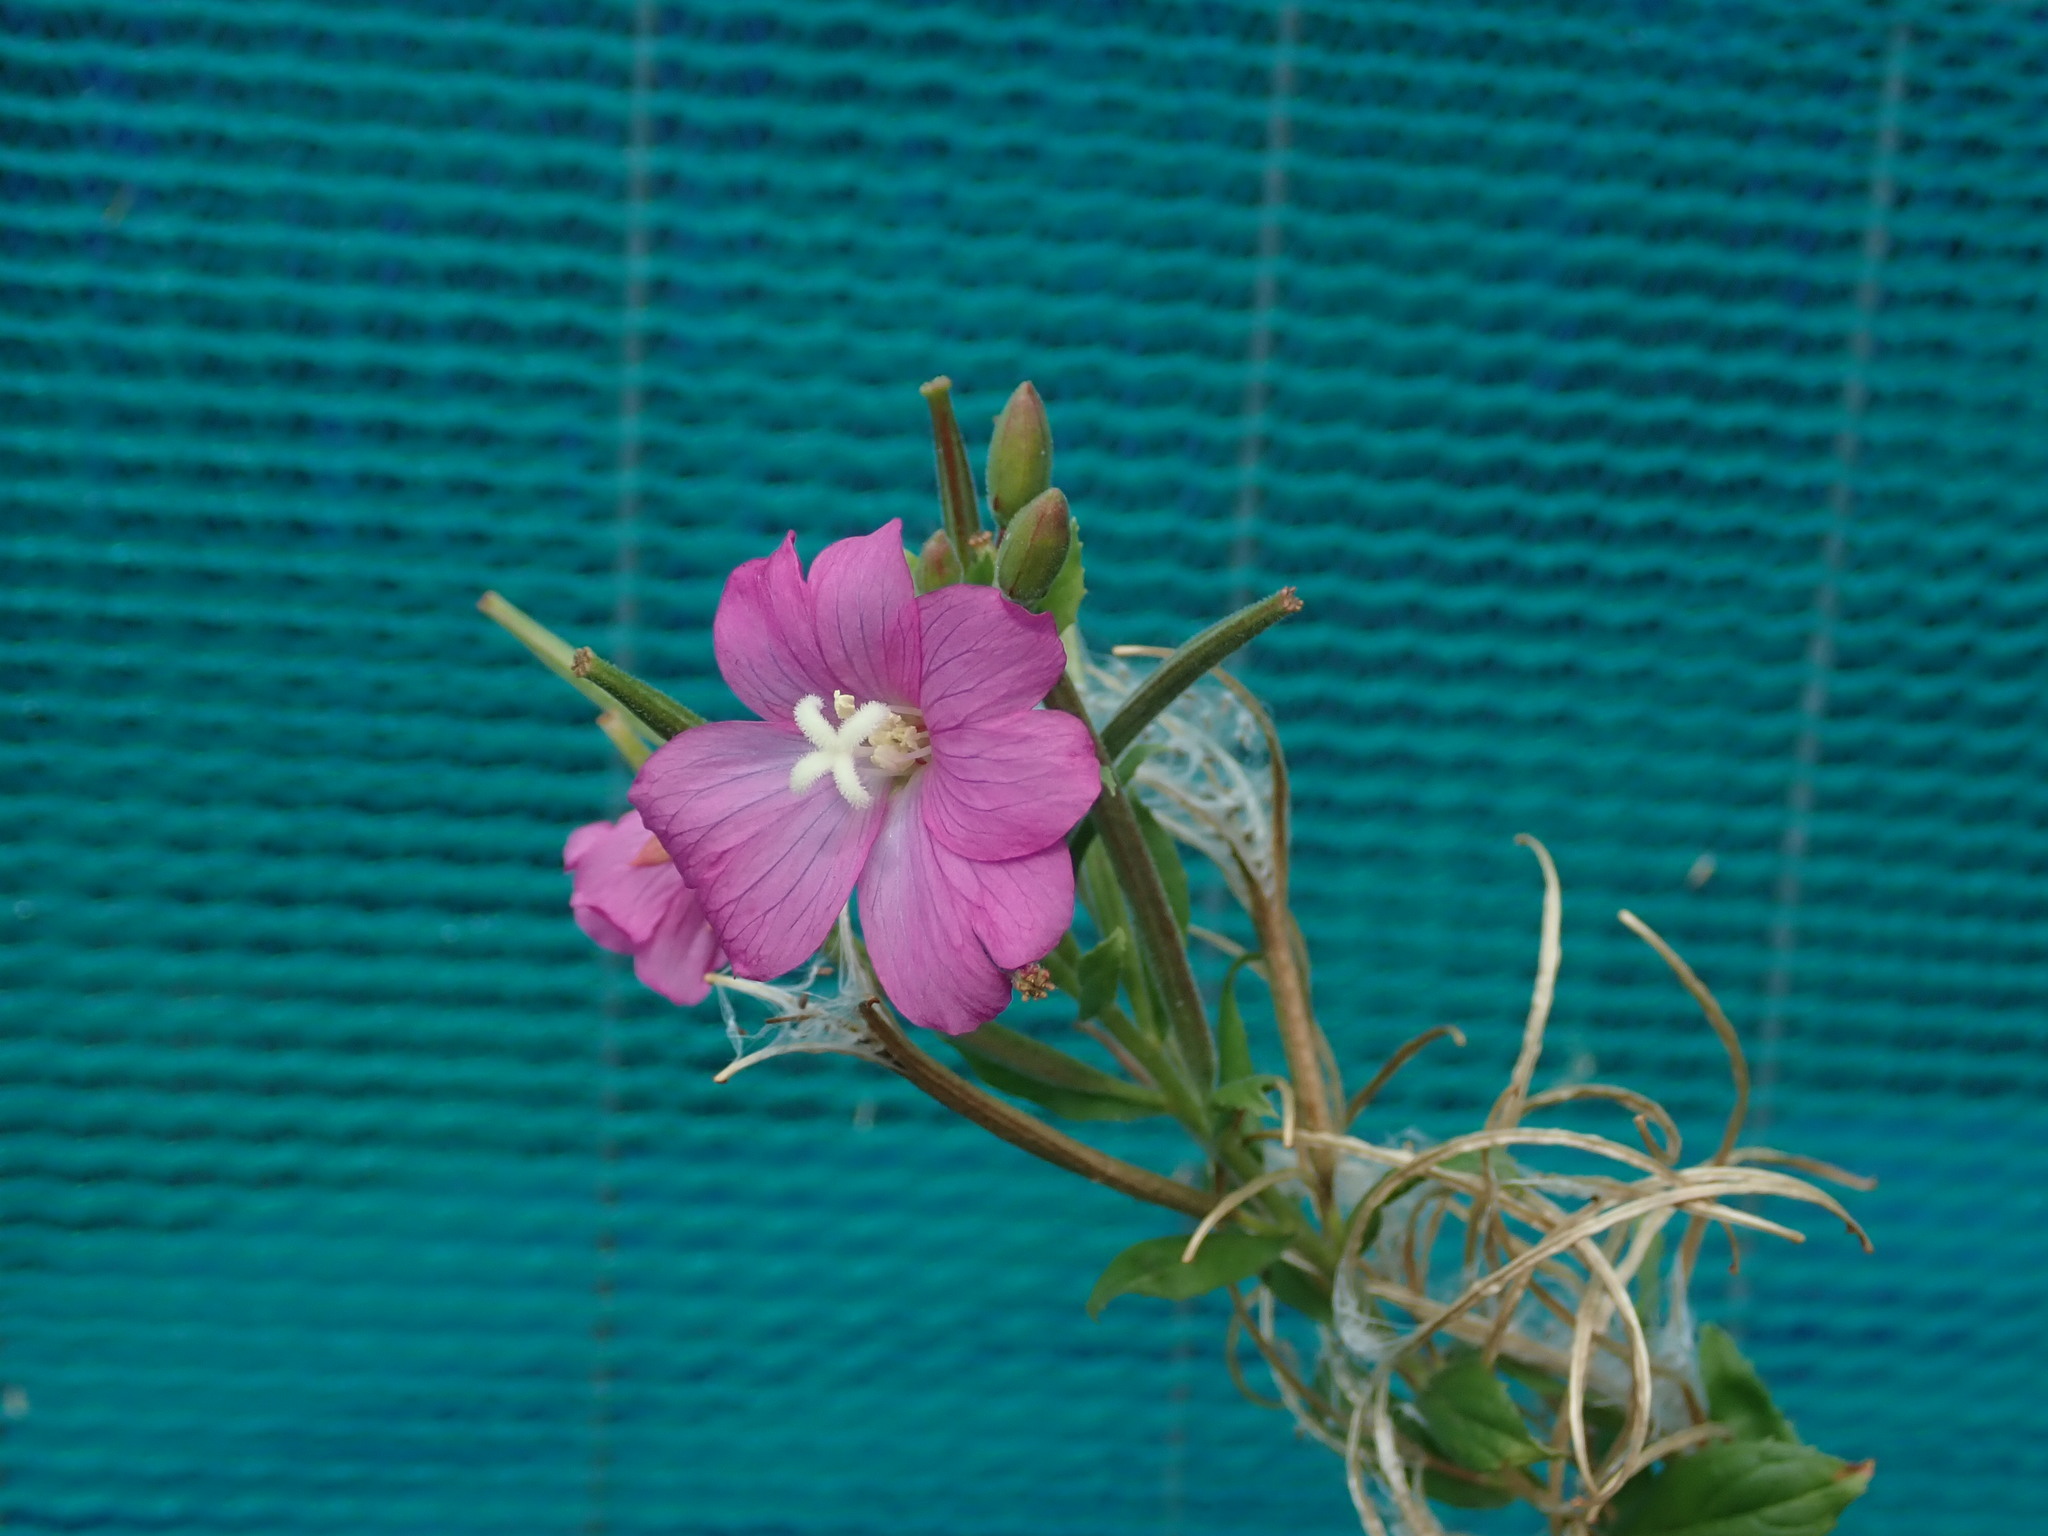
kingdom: Plantae
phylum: Tracheophyta
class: Magnoliopsida
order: Myrtales
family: Onagraceae
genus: Epilobium
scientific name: Epilobium hirsutum
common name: Great willowherb
